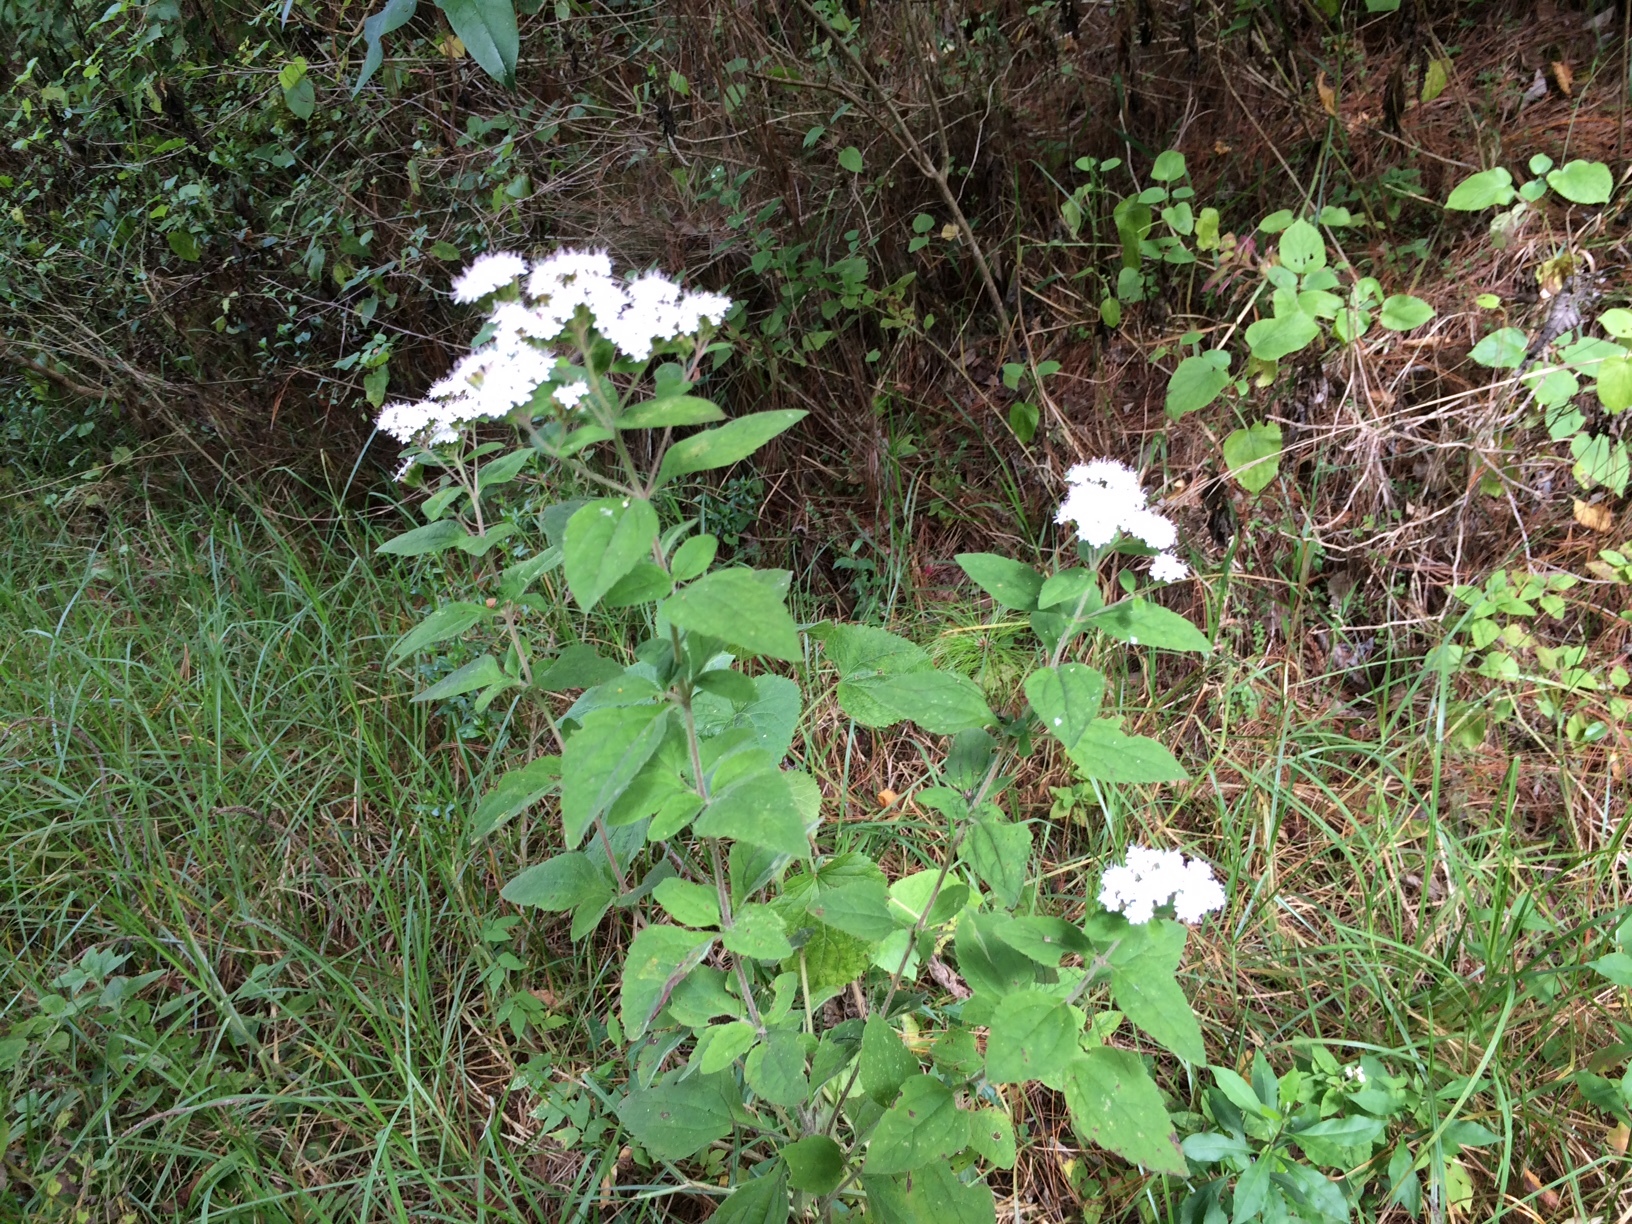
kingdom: Plantae
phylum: Tracheophyta
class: Magnoliopsida
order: Asterales
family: Asteraceae
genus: Stevia
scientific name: Stevia tomentosa
